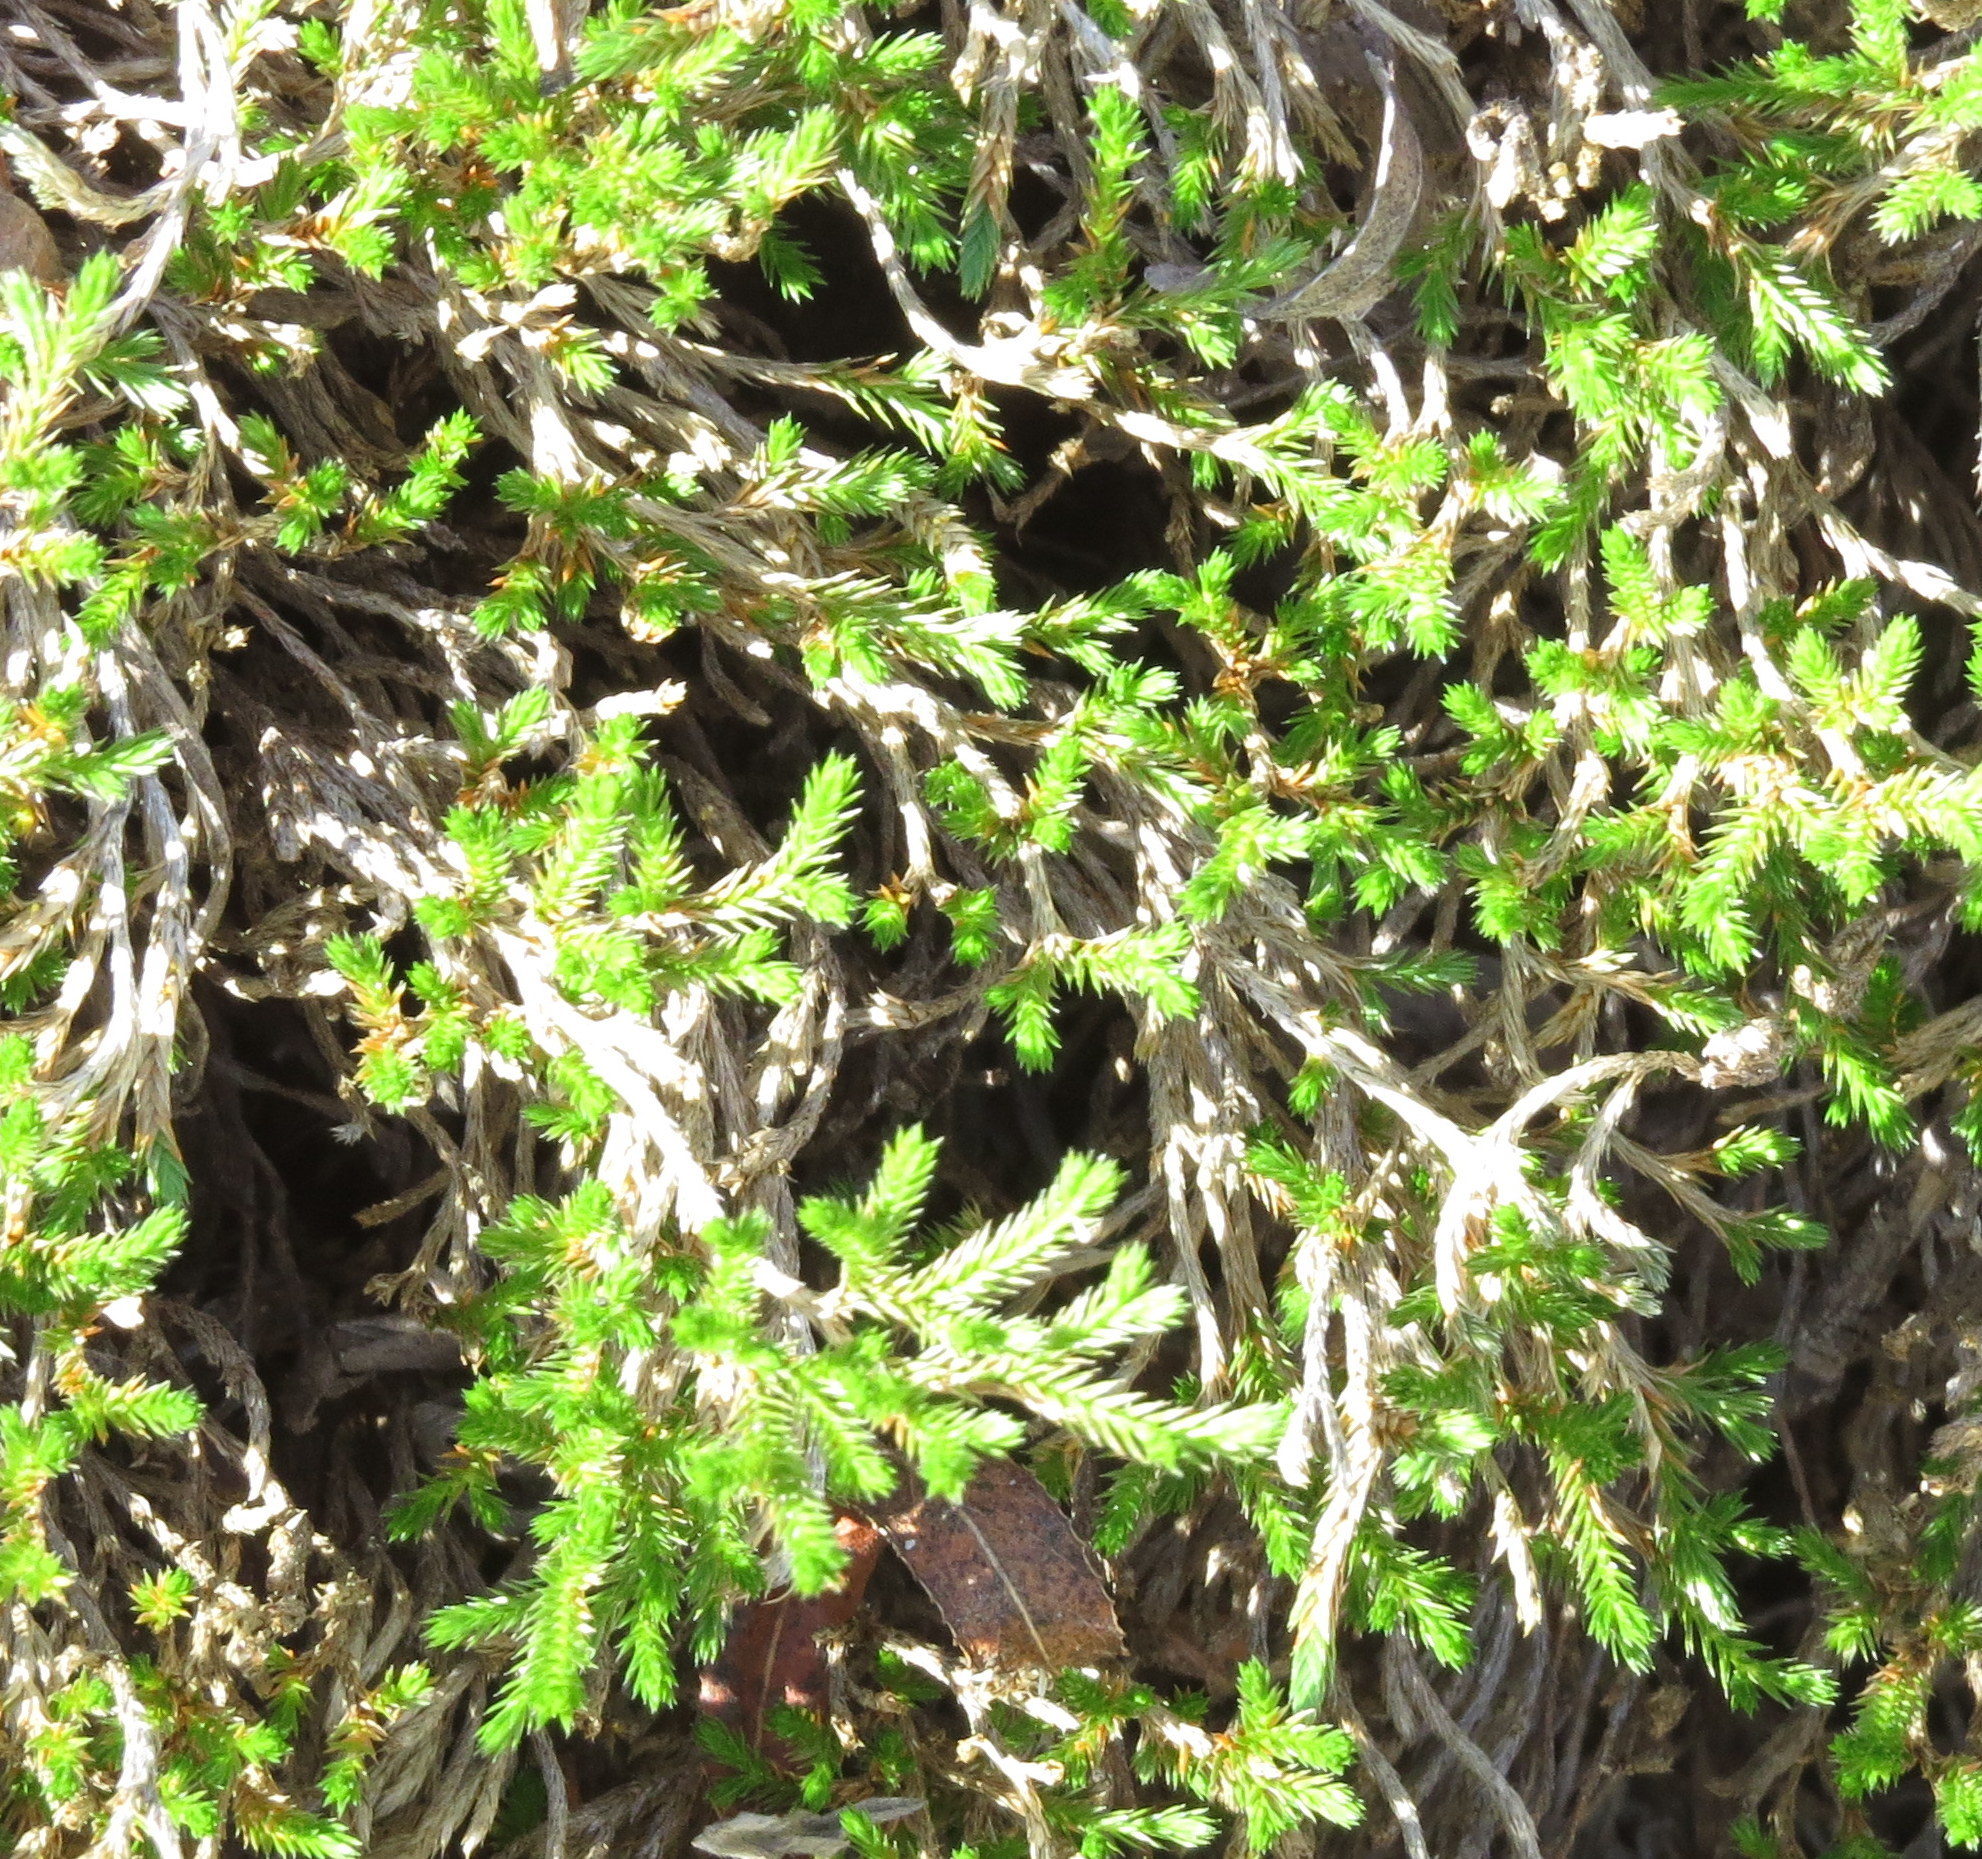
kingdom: Plantae
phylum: Tracheophyta
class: Lycopodiopsida
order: Selaginellales
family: Selaginellaceae
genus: Selaginella
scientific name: Selaginella bigelovii
